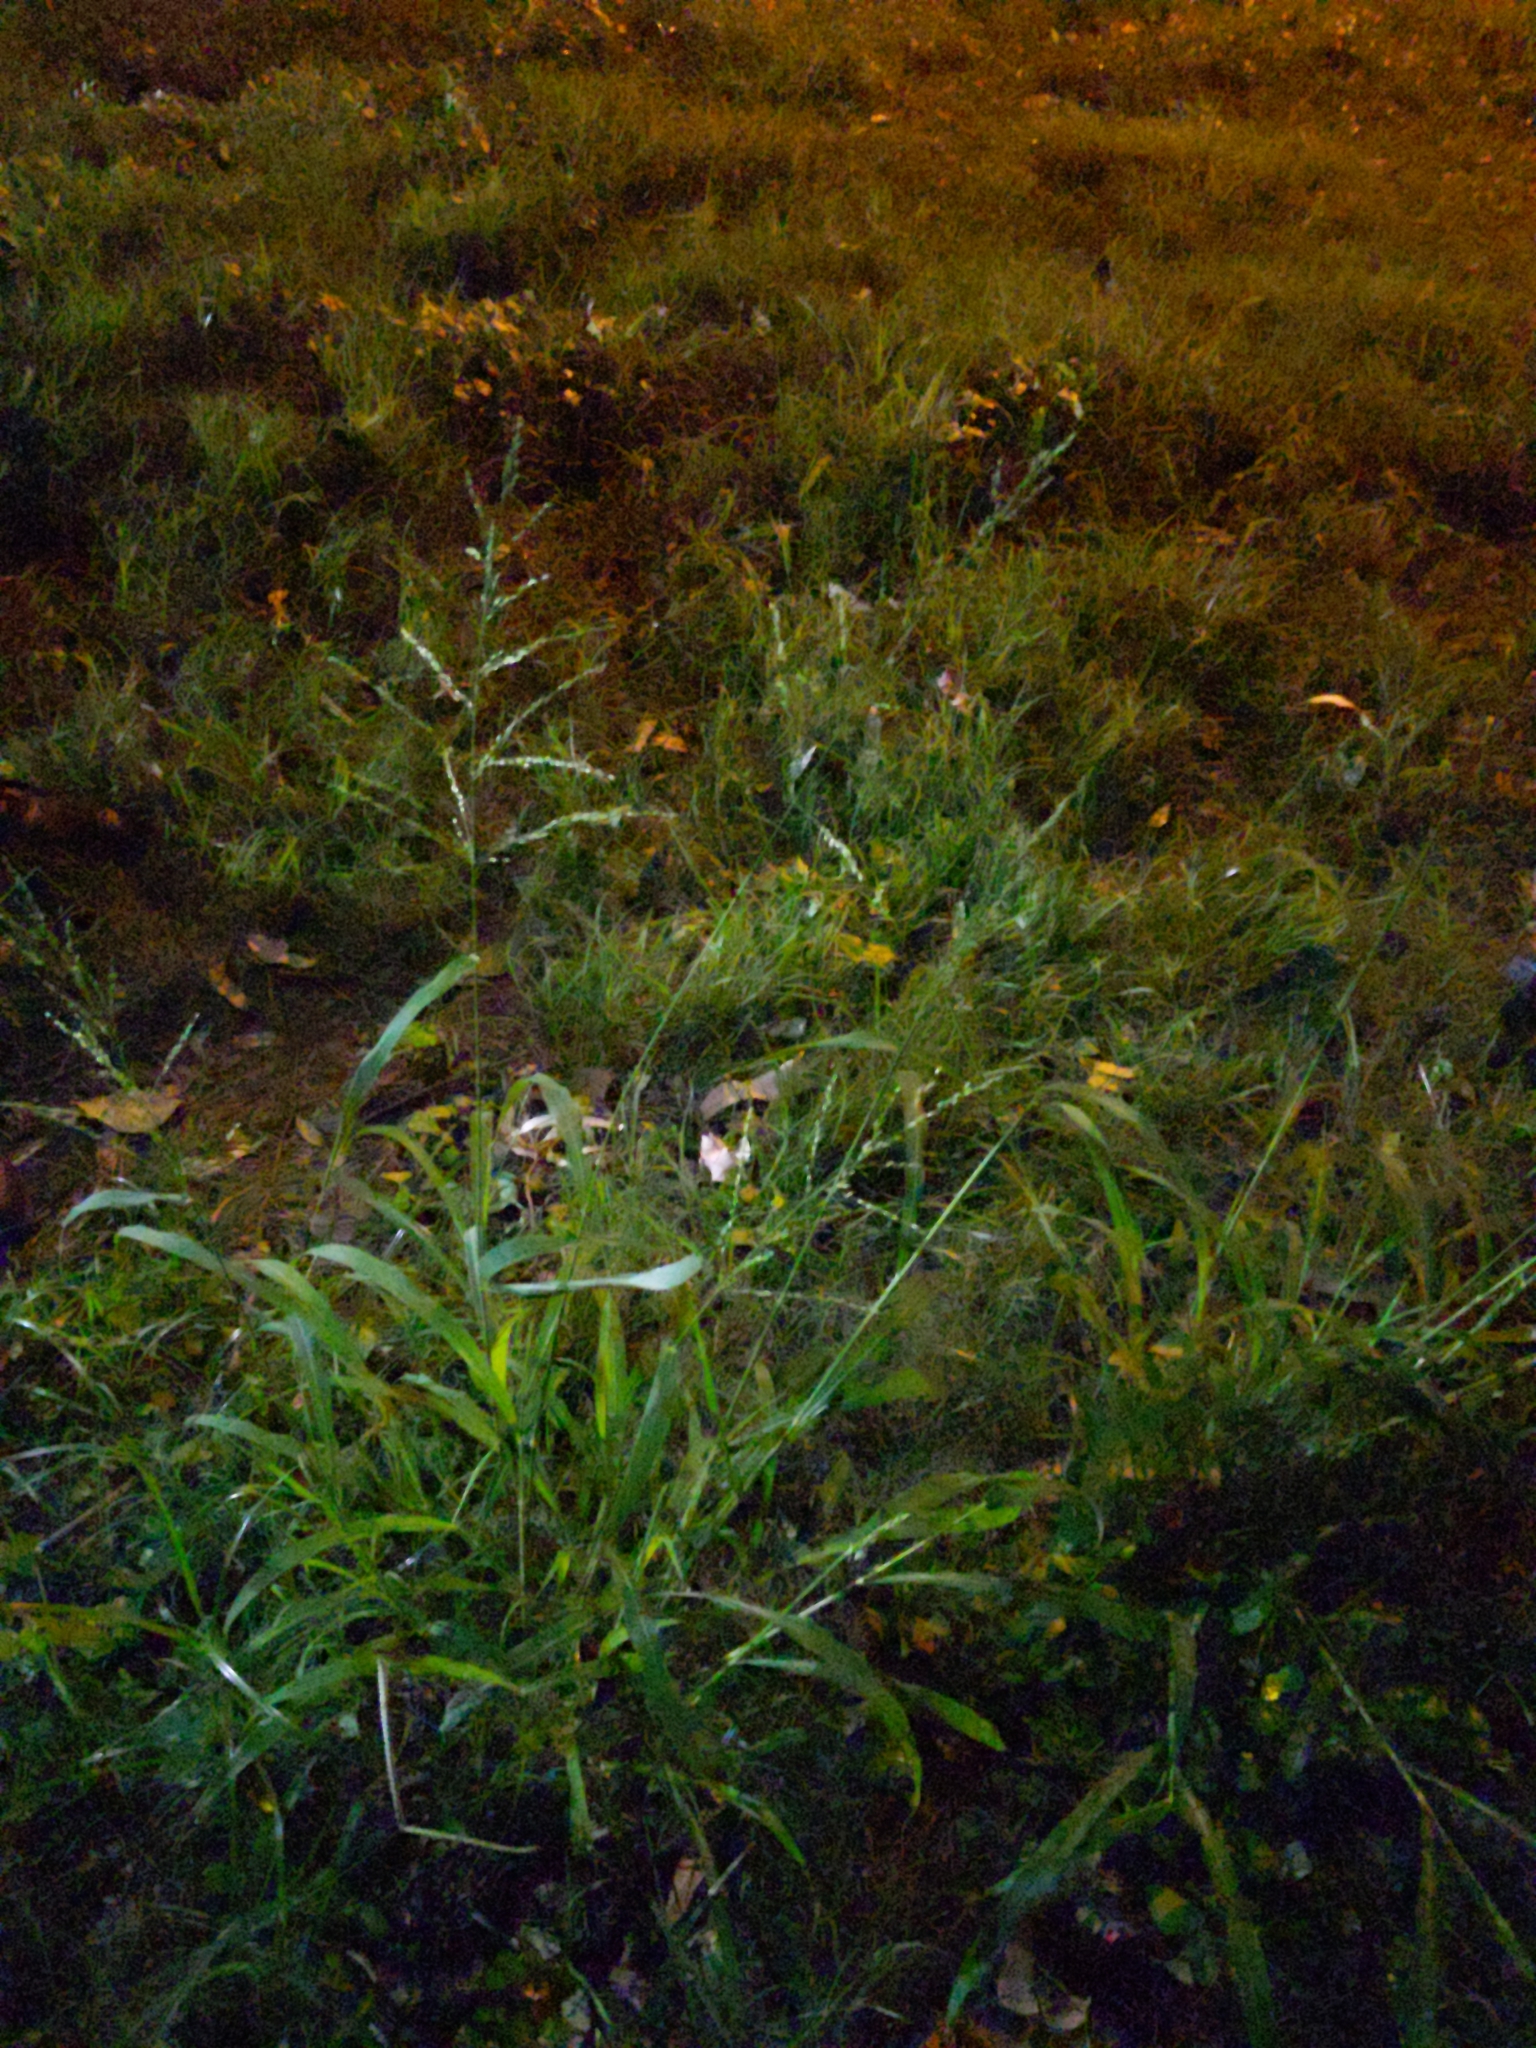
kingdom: Plantae
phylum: Tracheophyta
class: Liliopsida
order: Poales
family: Poaceae
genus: Megathyrsus
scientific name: Megathyrsus maximus
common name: Guineagrass
